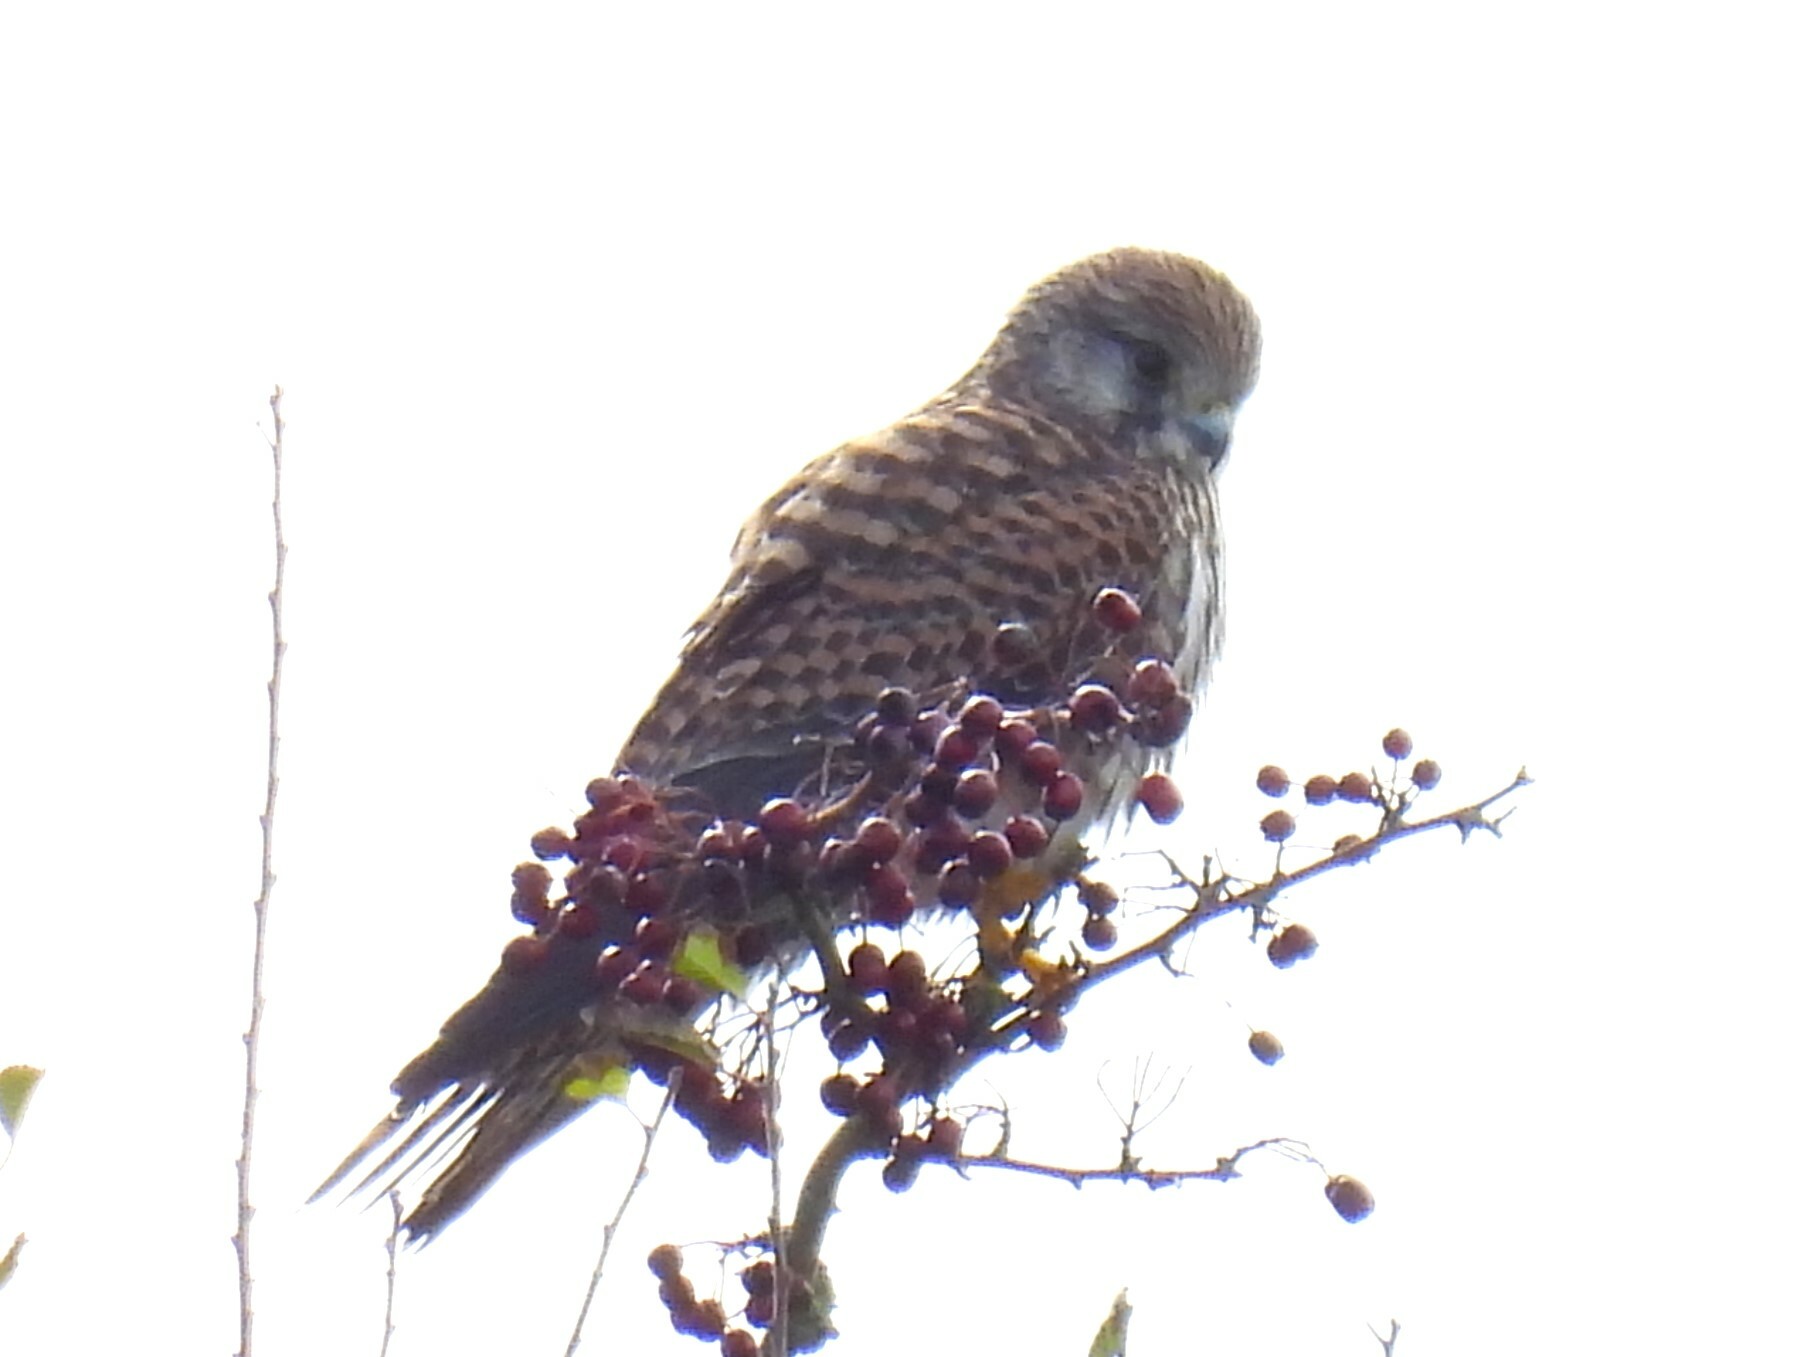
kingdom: Animalia
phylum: Chordata
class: Aves
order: Falconiformes
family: Falconidae
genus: Falco
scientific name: Falco tinnunculus
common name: Common kestrel
